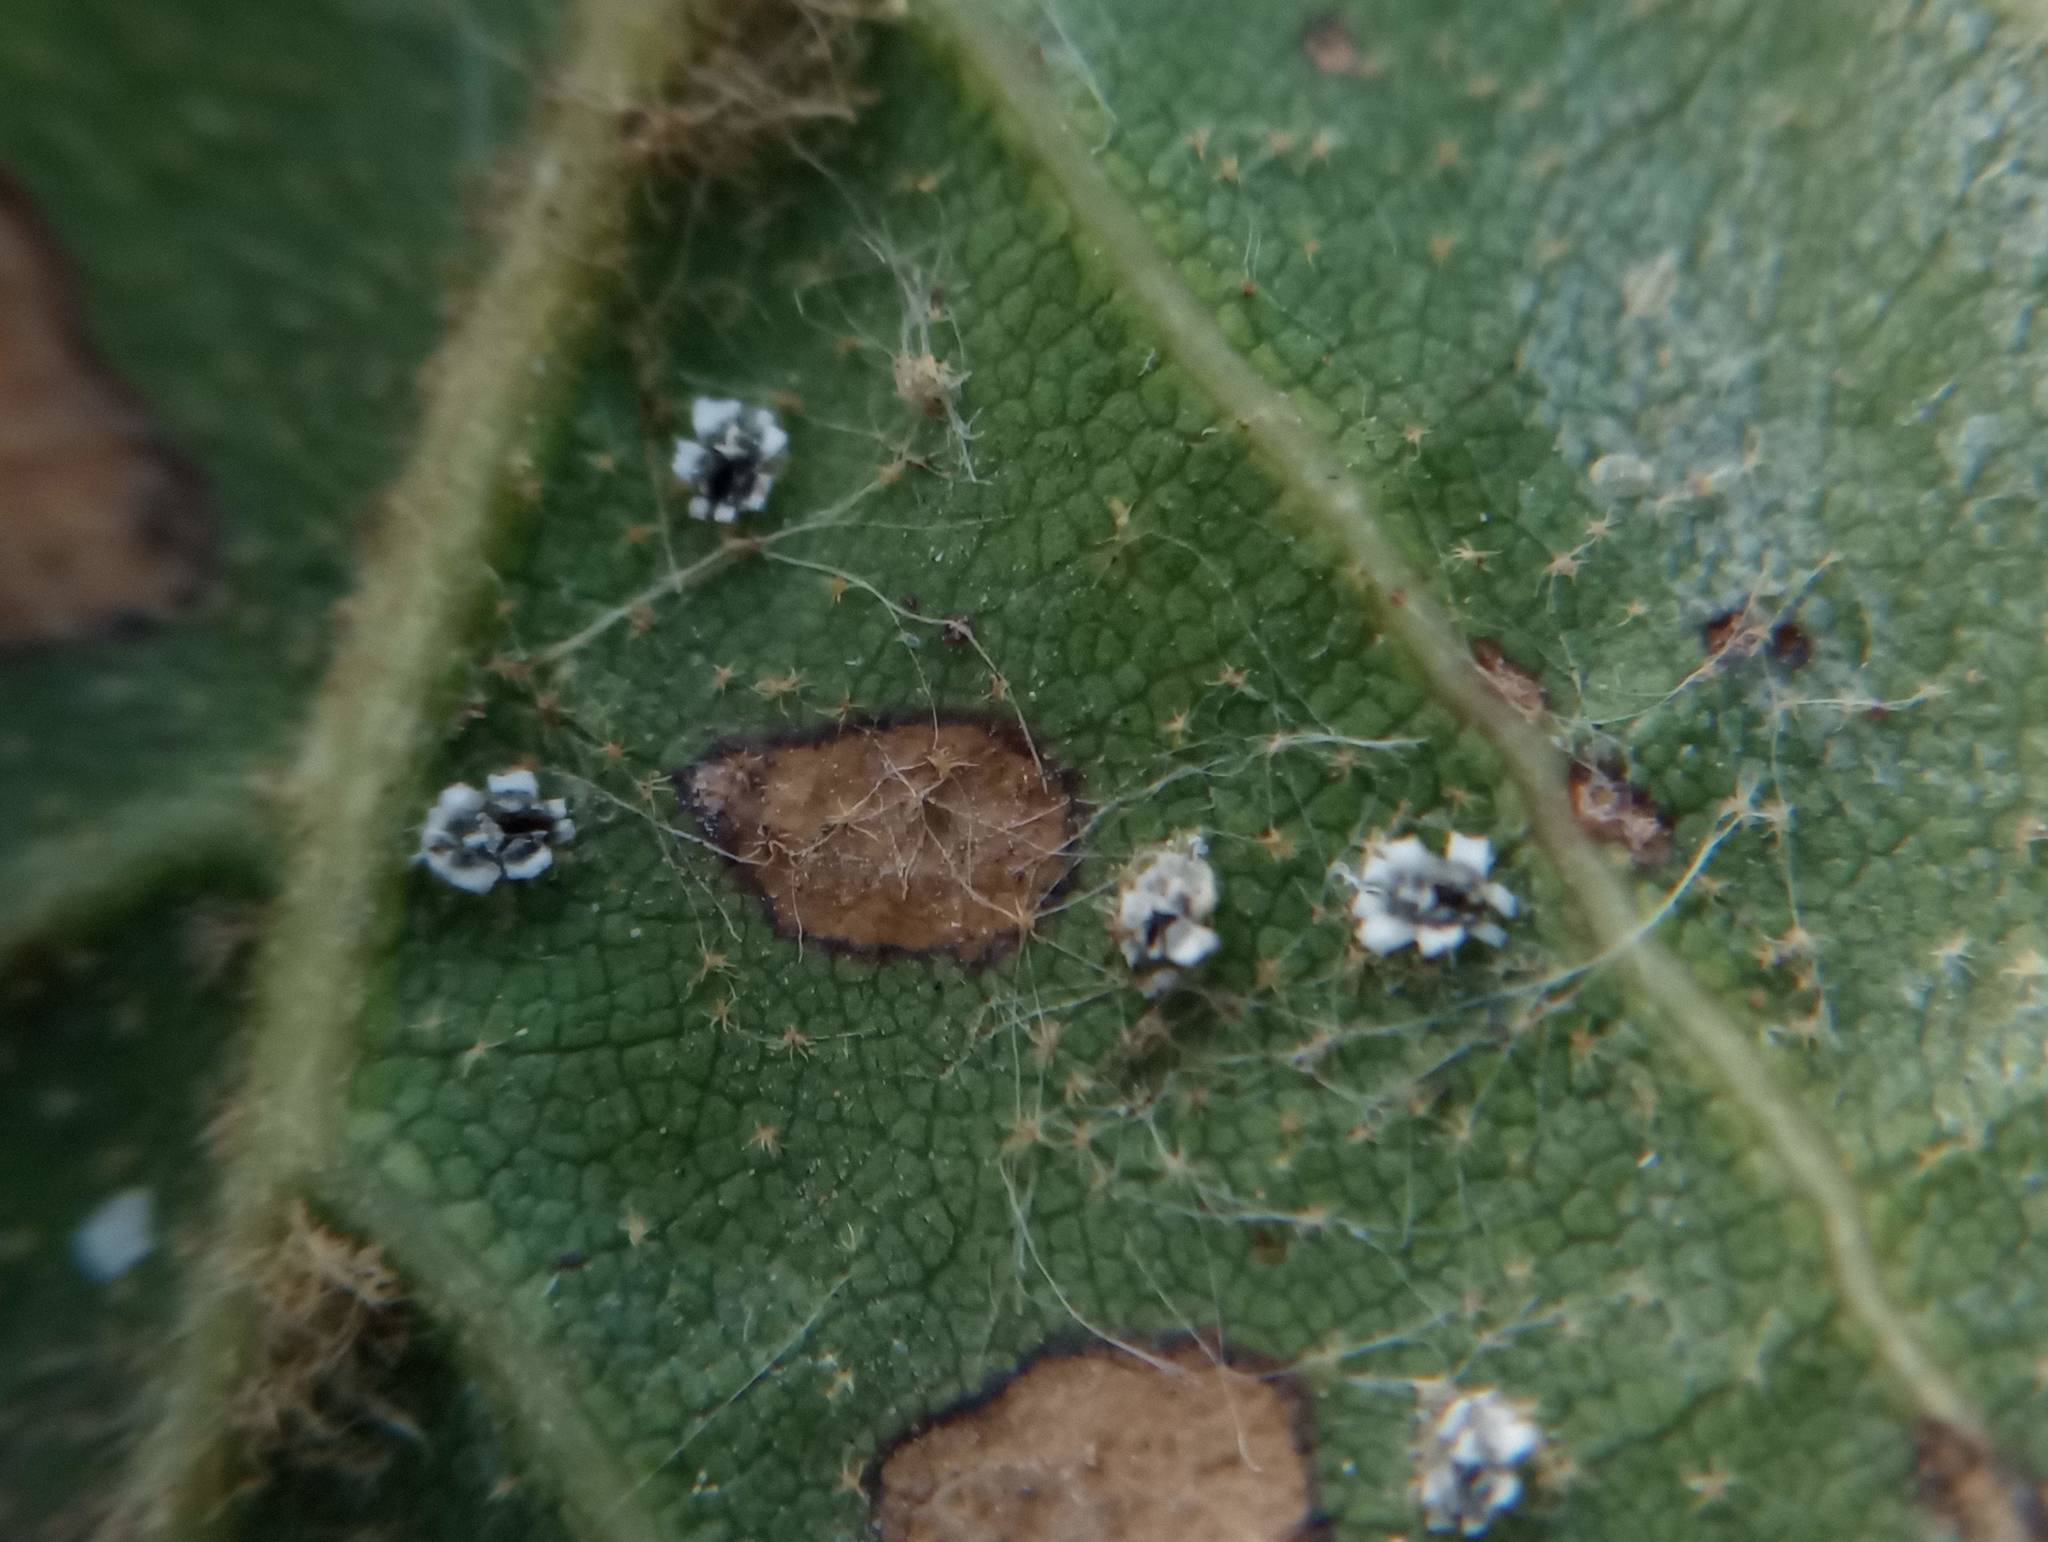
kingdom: Animalia
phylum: Arthropoda
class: Insecta
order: Hemiptera
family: Aleyrodidae
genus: Aleuroplatus
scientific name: Aleuroplatus coronata
